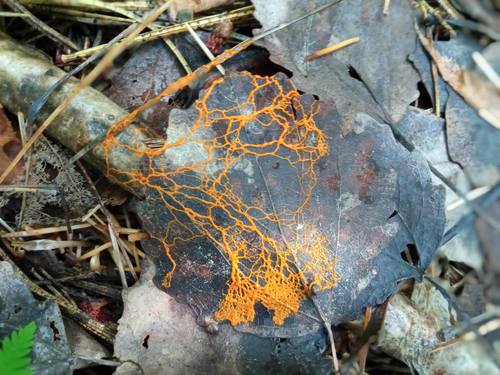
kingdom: Protozoa
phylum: Mycetozoa
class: Myxomycetes
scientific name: Myxomycetes
